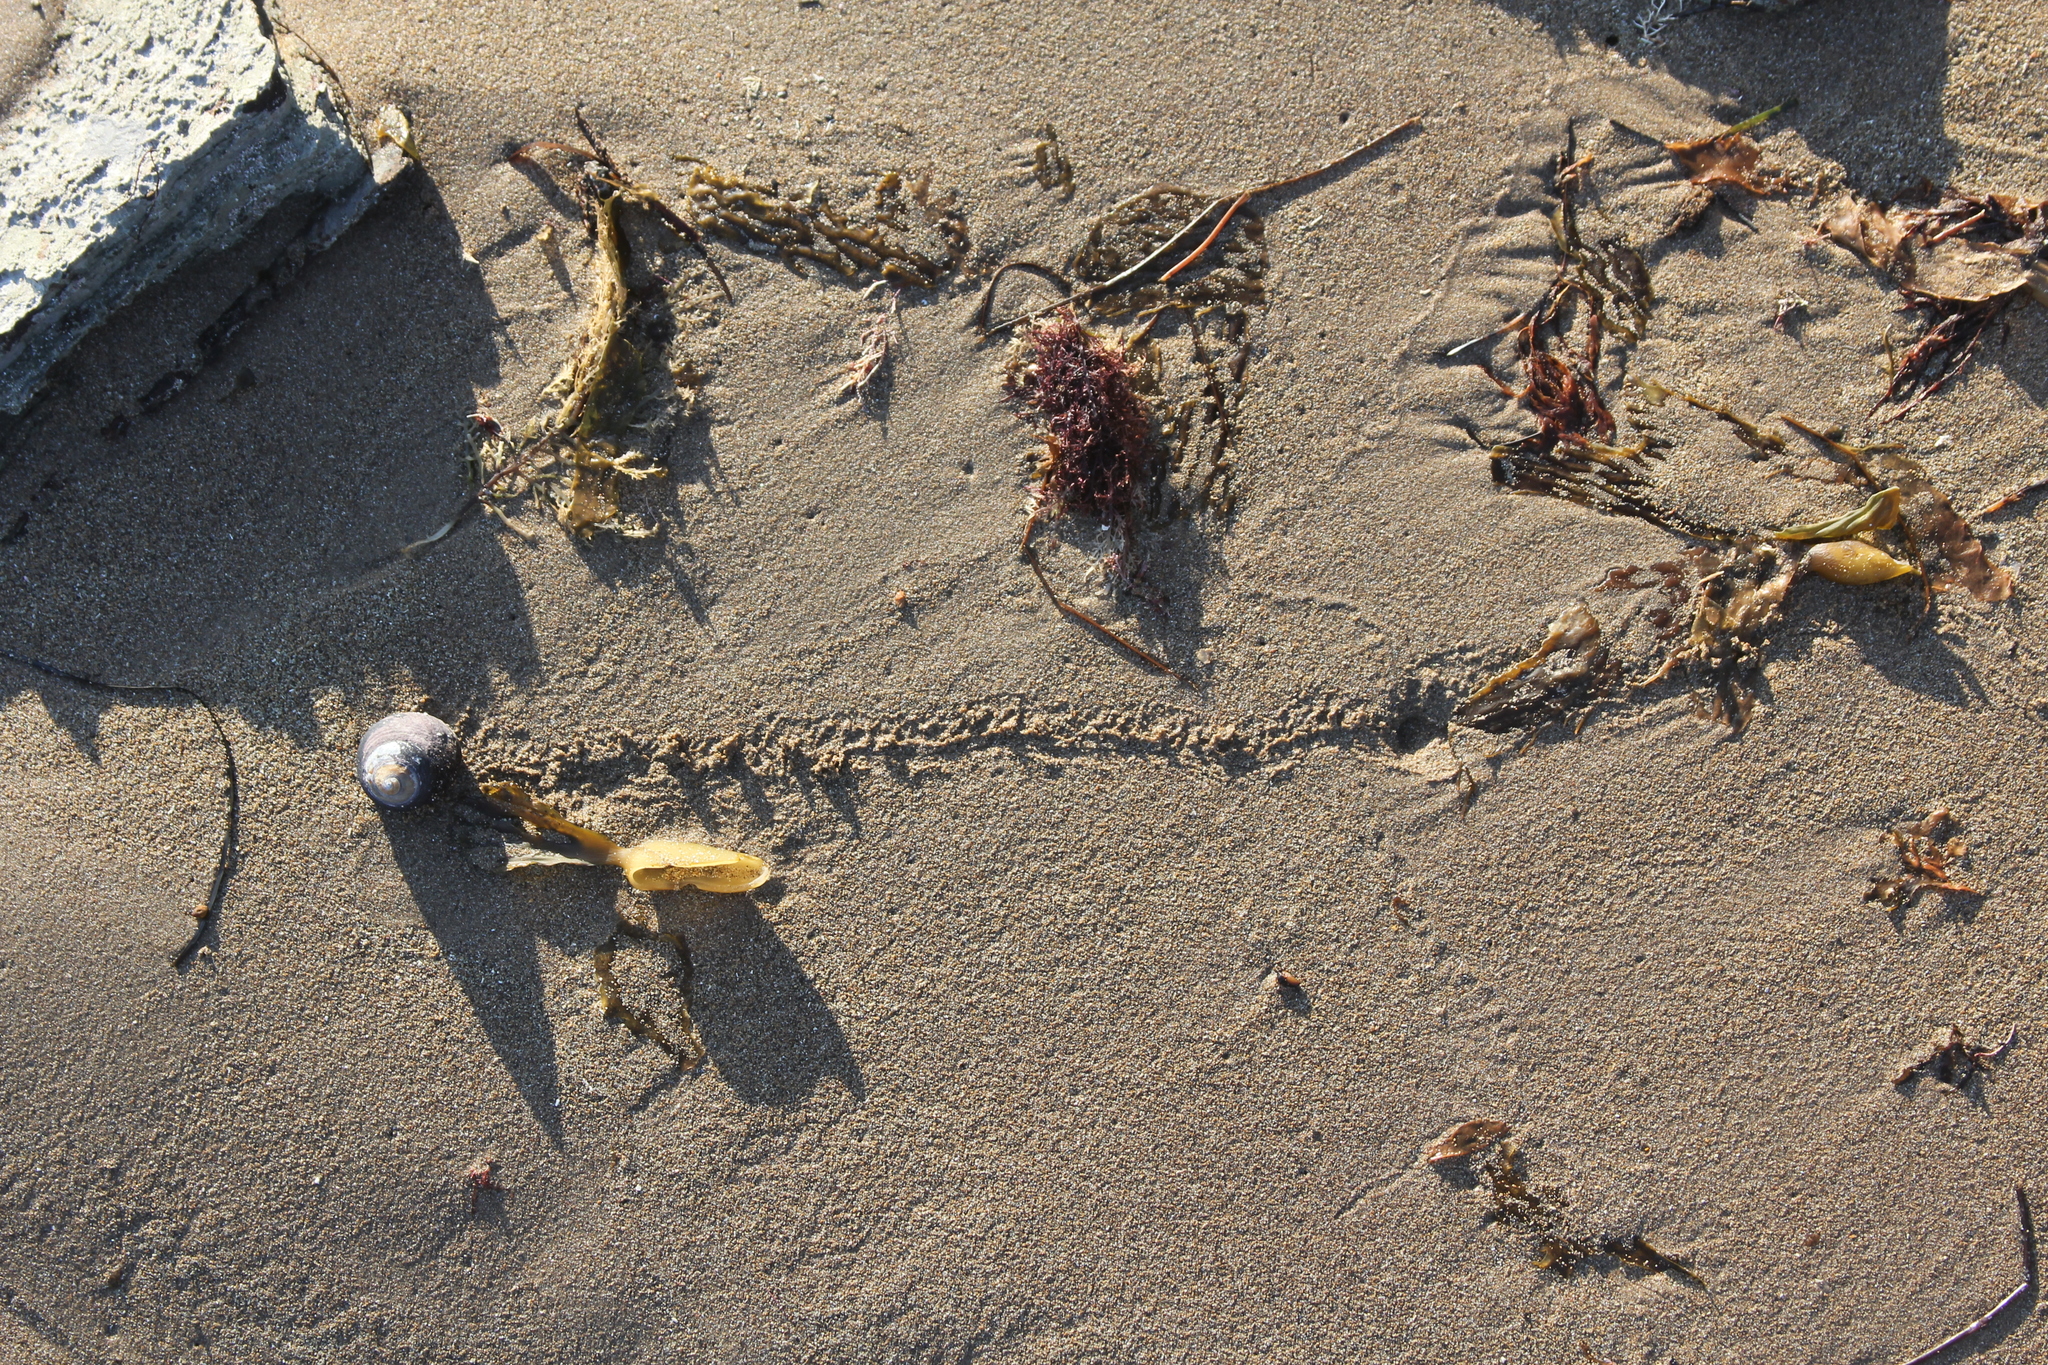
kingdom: Animalia
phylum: Mollusca
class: Gastropoda
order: Trochida
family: Tegulidae
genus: Tegula
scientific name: Tegula funebralis
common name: Black tegula
